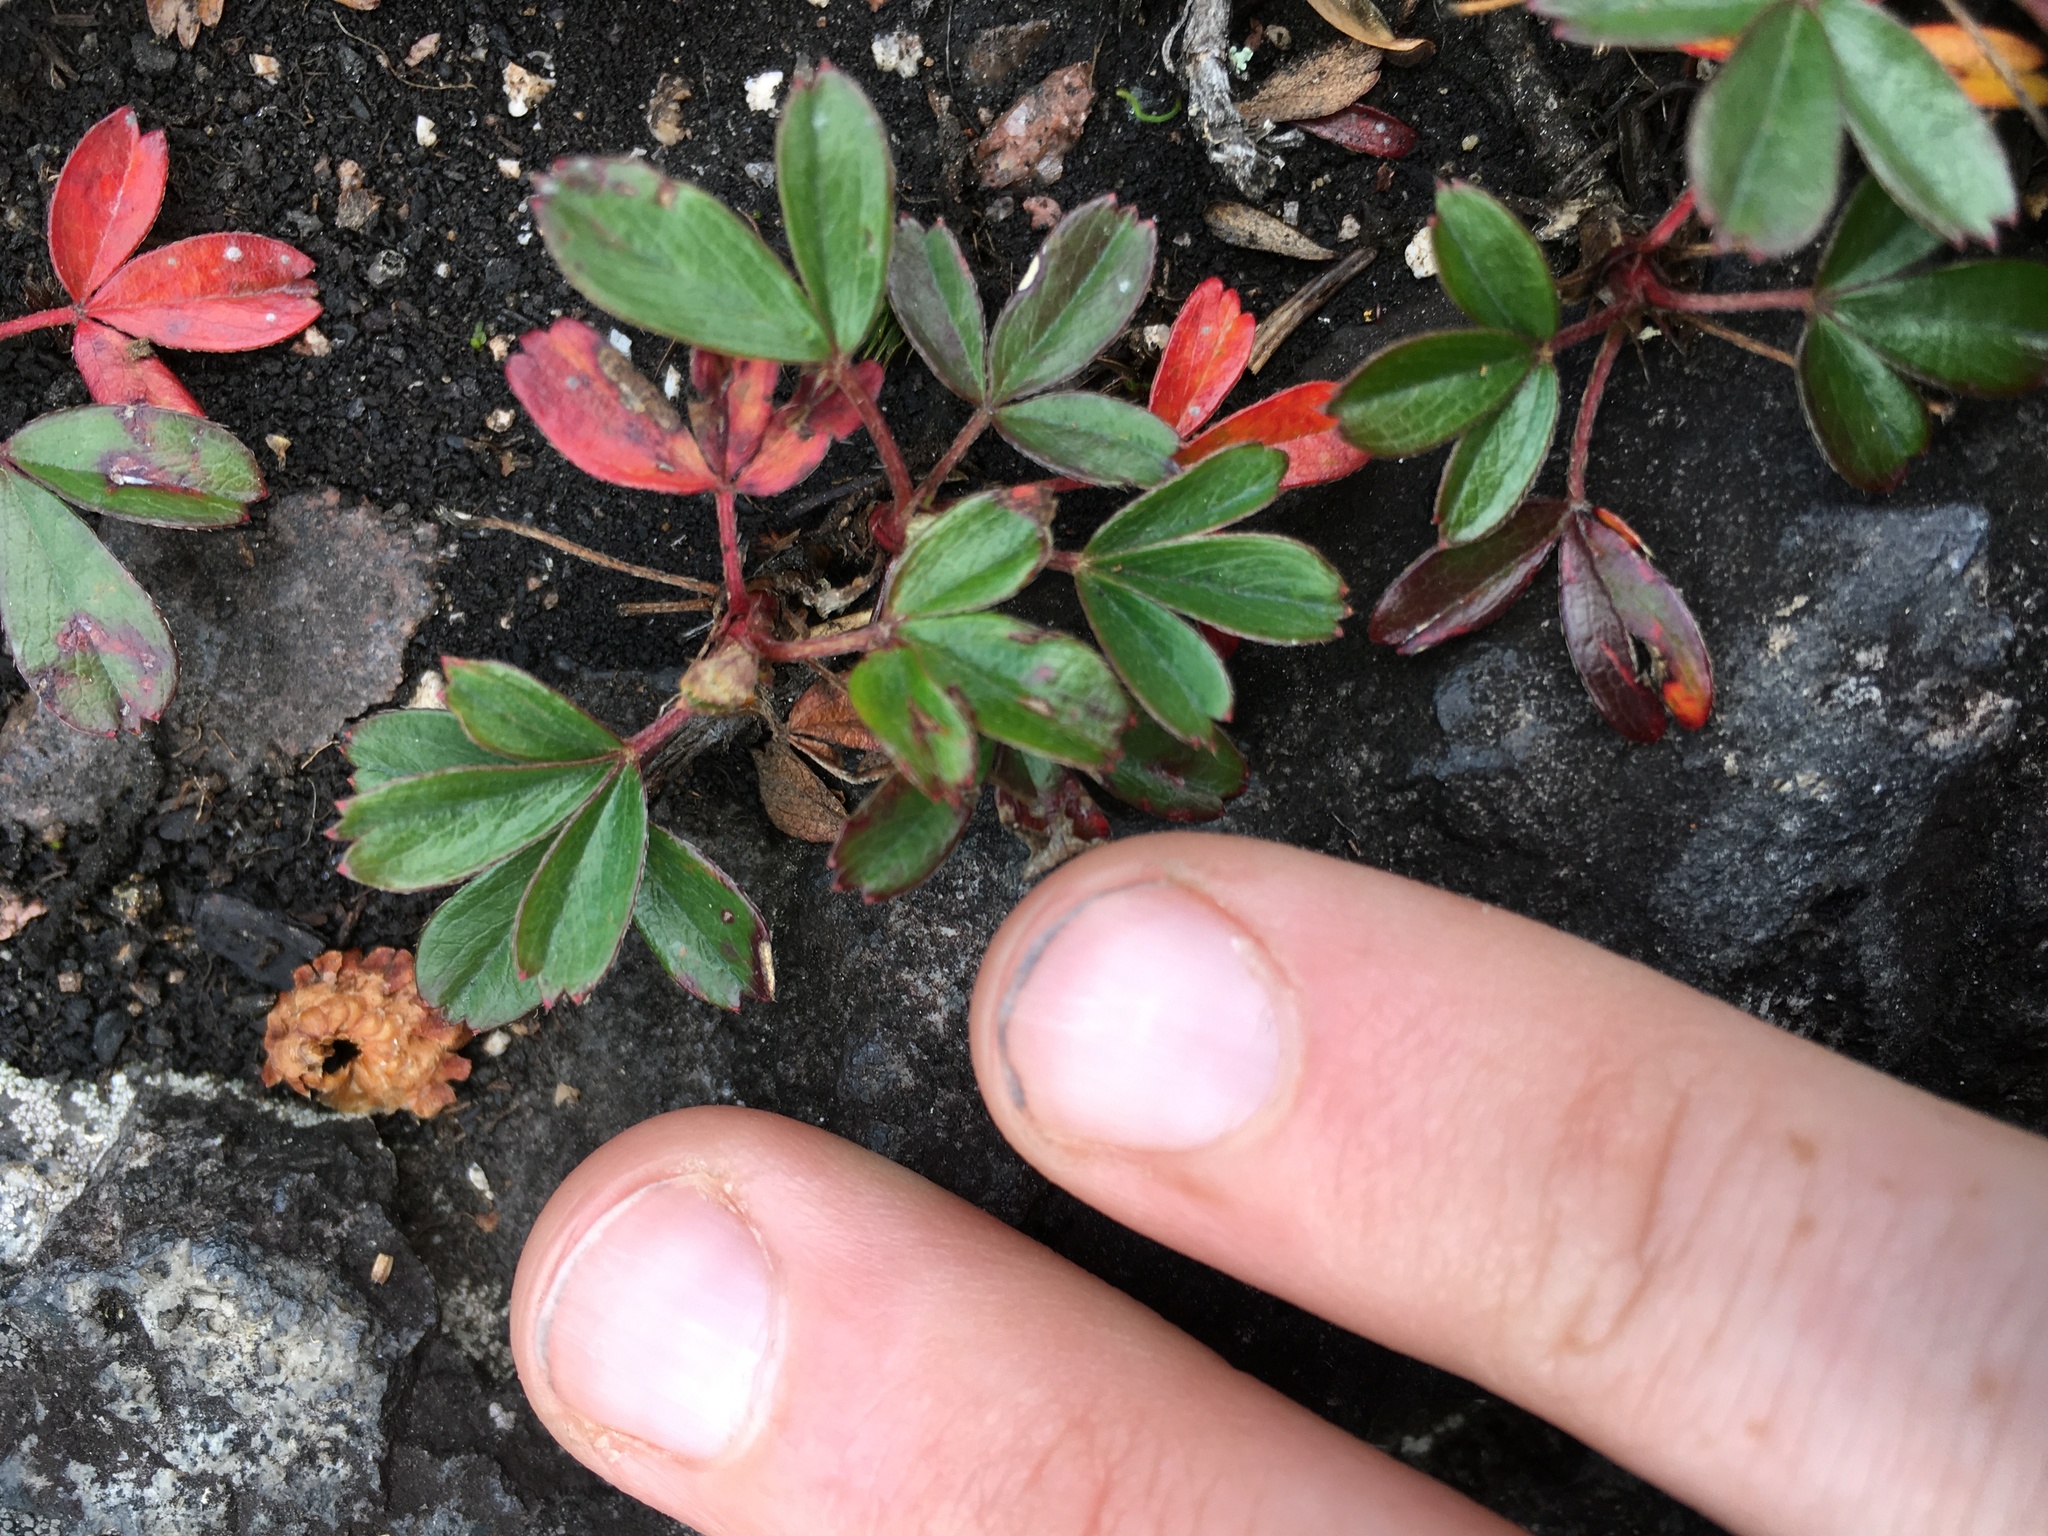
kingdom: Plantae
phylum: Tracheophyta
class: Magnoliopsida
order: Rosales
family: Rosaceae
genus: Sibbaldia
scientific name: Sibbaldia tridentata
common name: Three-toothed cinquefoil
